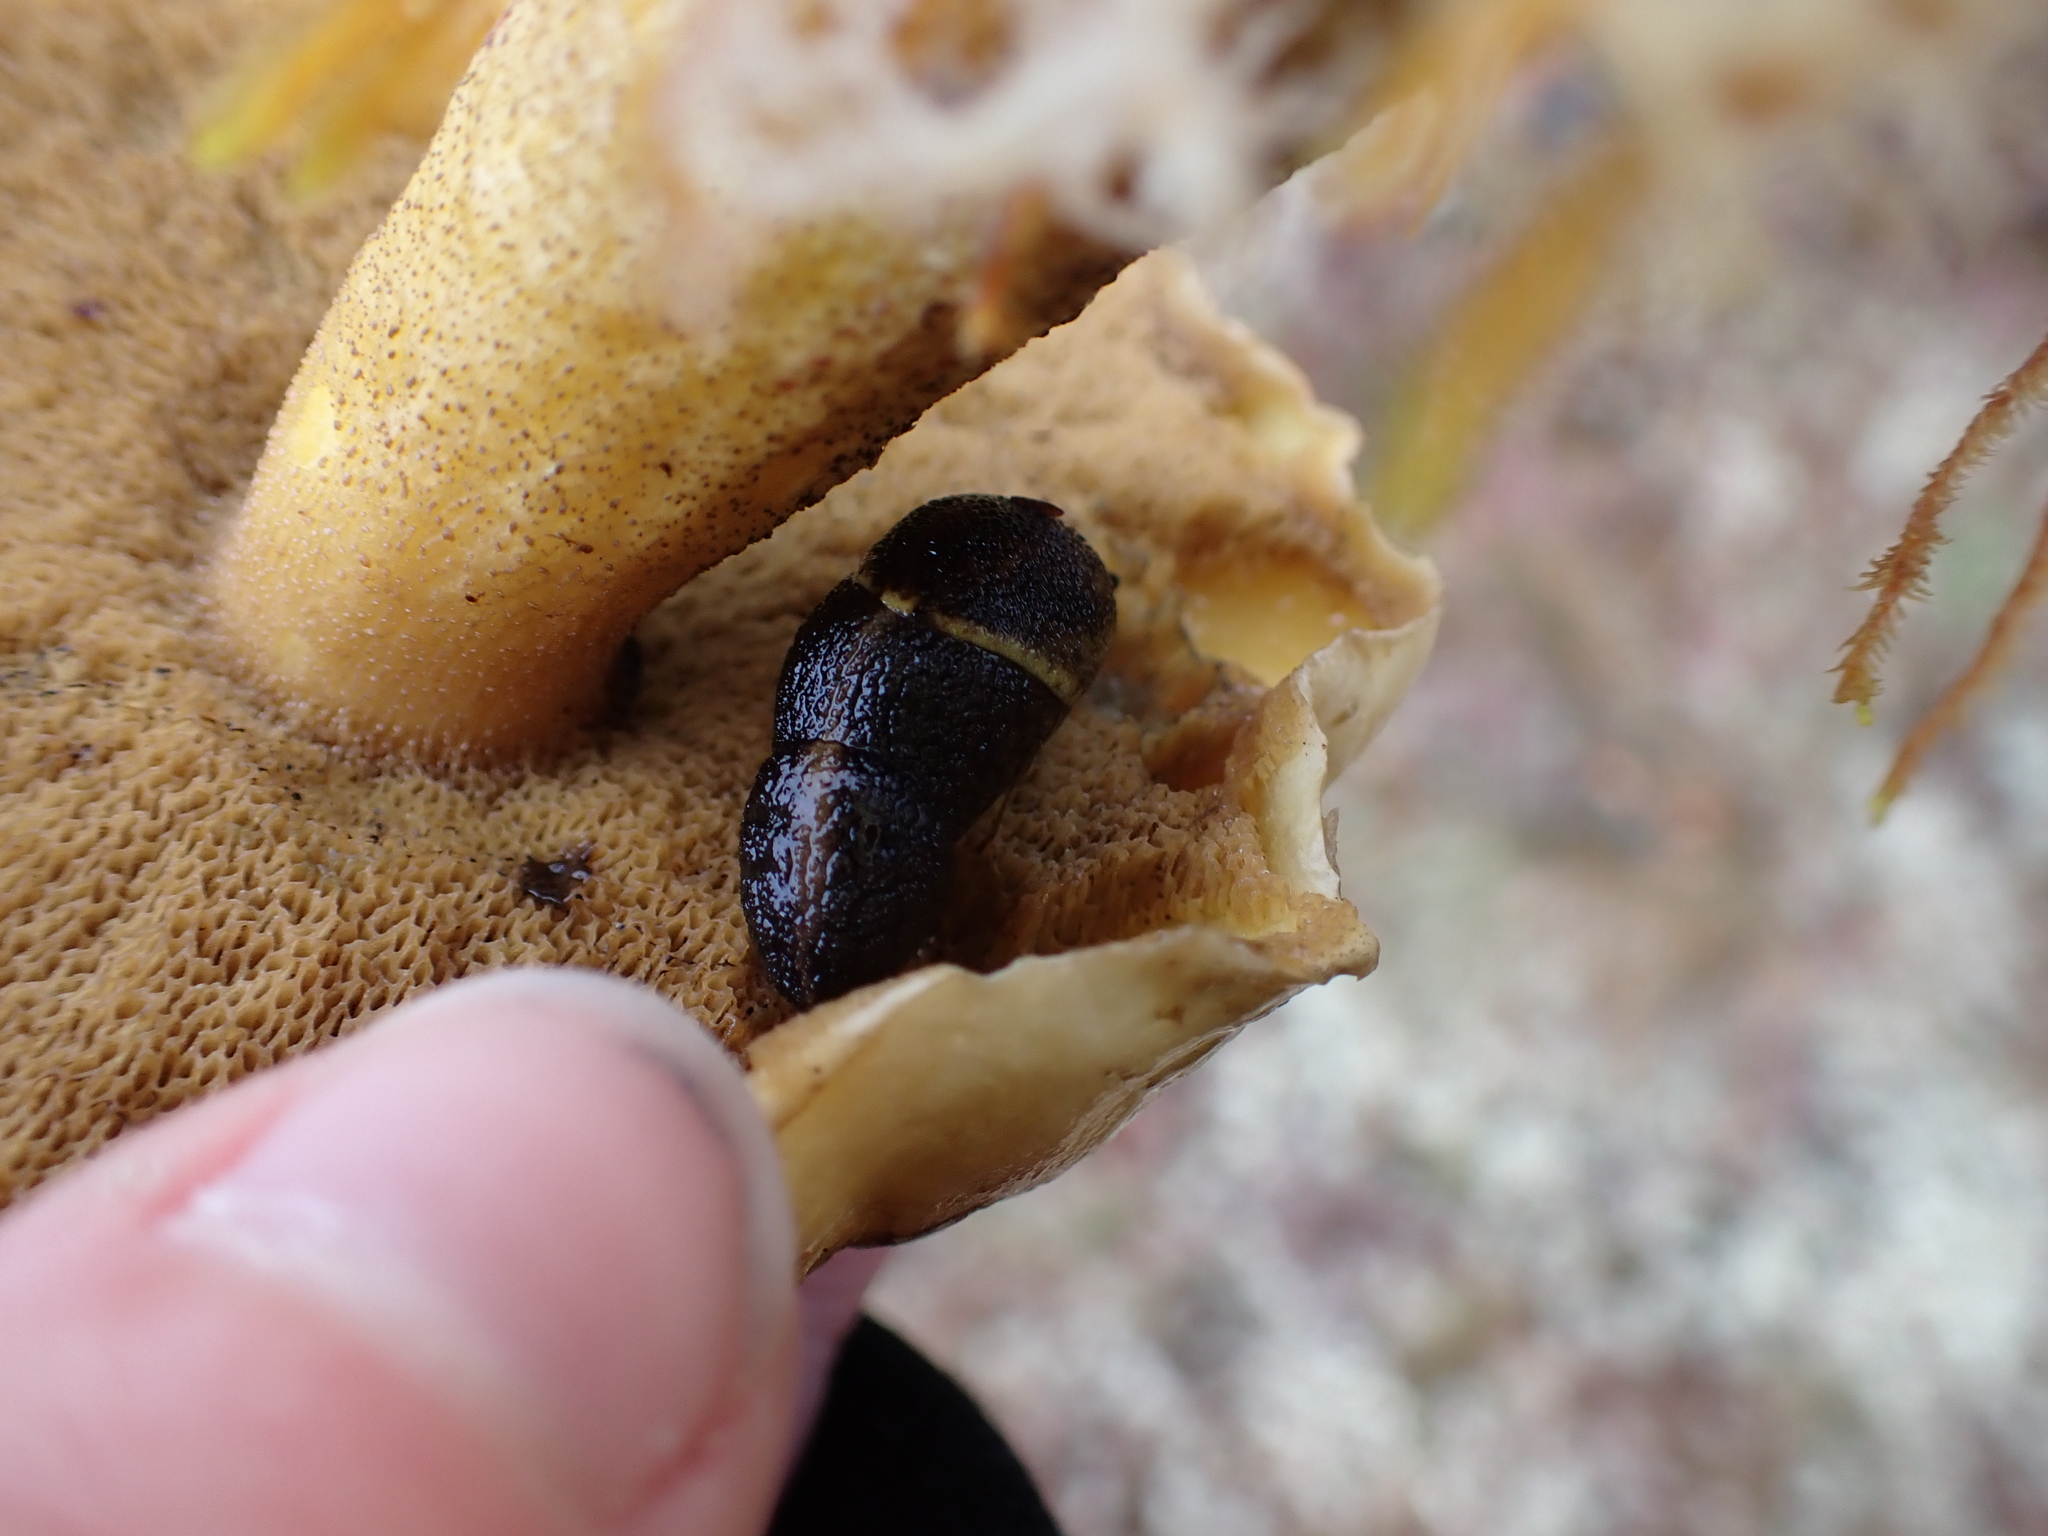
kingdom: Animalia
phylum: Mollusca
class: Gastropoda
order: Stylommatophora
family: Ariolimacidae
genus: Prophysaon
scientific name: Prophysaon foliolatum
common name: Yellow-bordered taildropper
